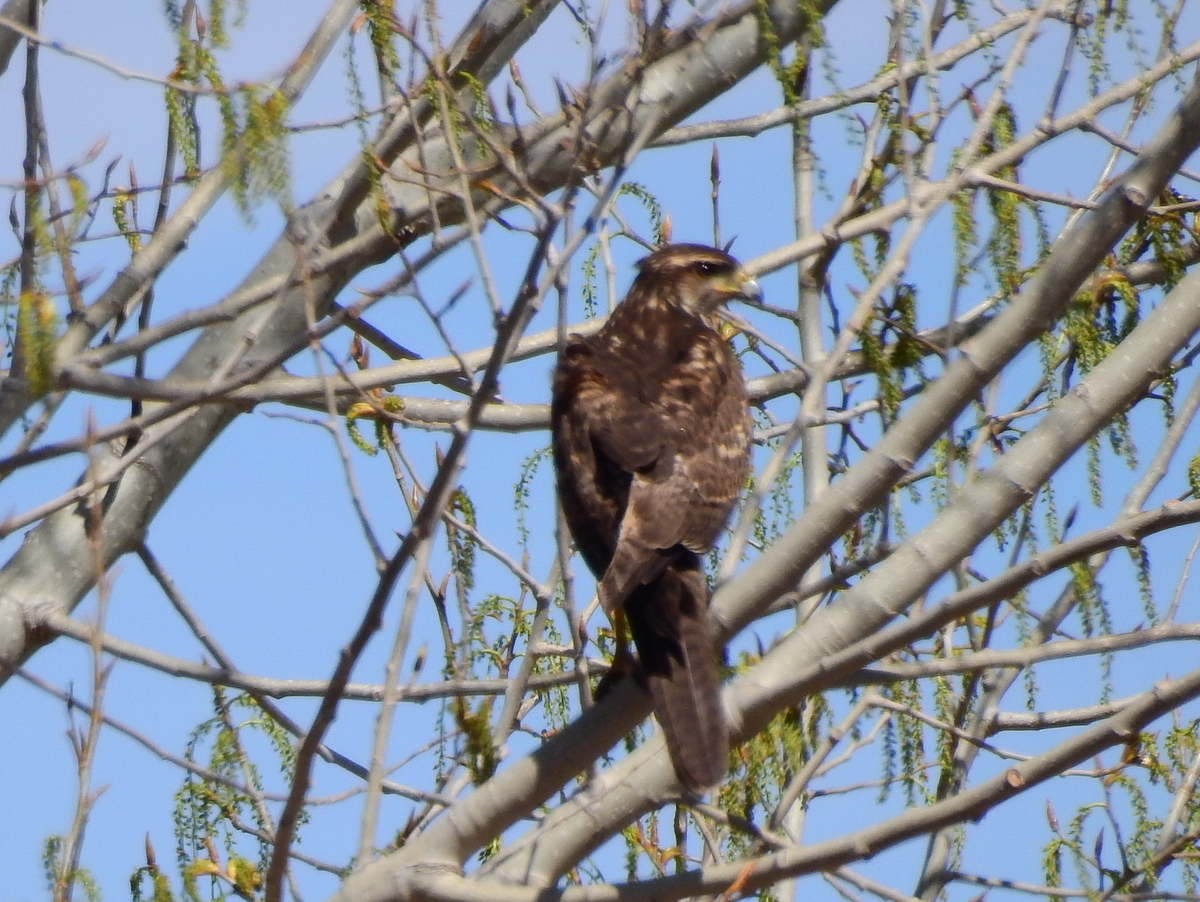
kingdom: Animalia
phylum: Chordata
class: Aves
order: Accipitriformes
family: Accipitridae
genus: Parabuteo
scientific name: Parabuteo unicinctus
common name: Harris's hawk
